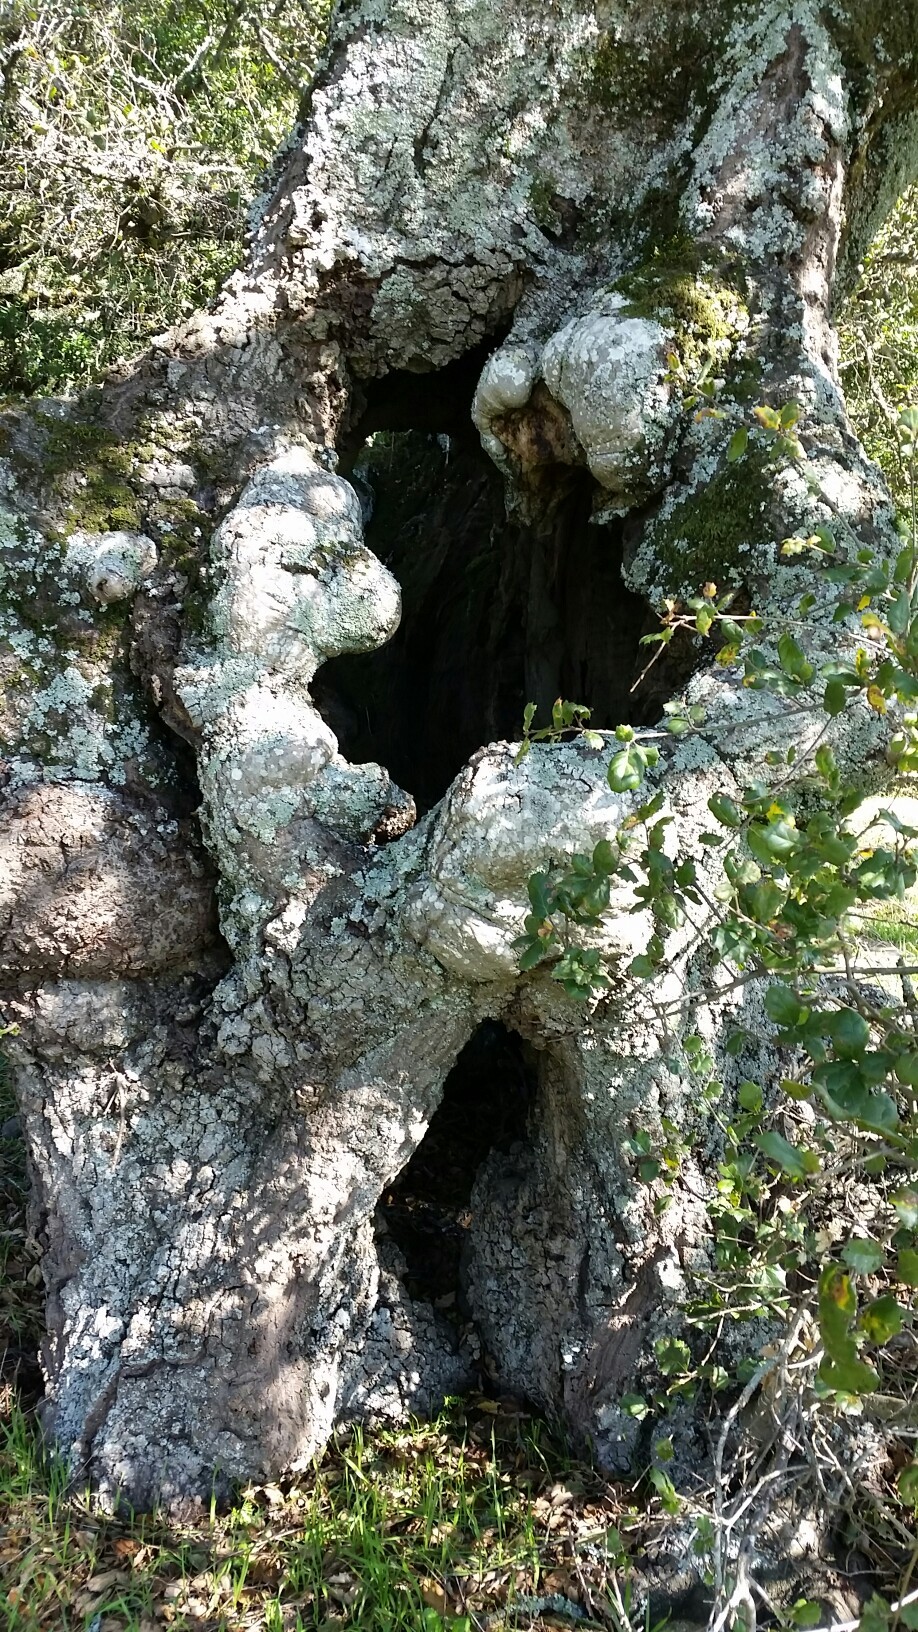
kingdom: Plantae
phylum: Tracheophyta
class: Magnoliopsida
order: Fagales
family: Fagaceae
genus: Quercus
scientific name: Quercus agrifolia
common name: California live oak
